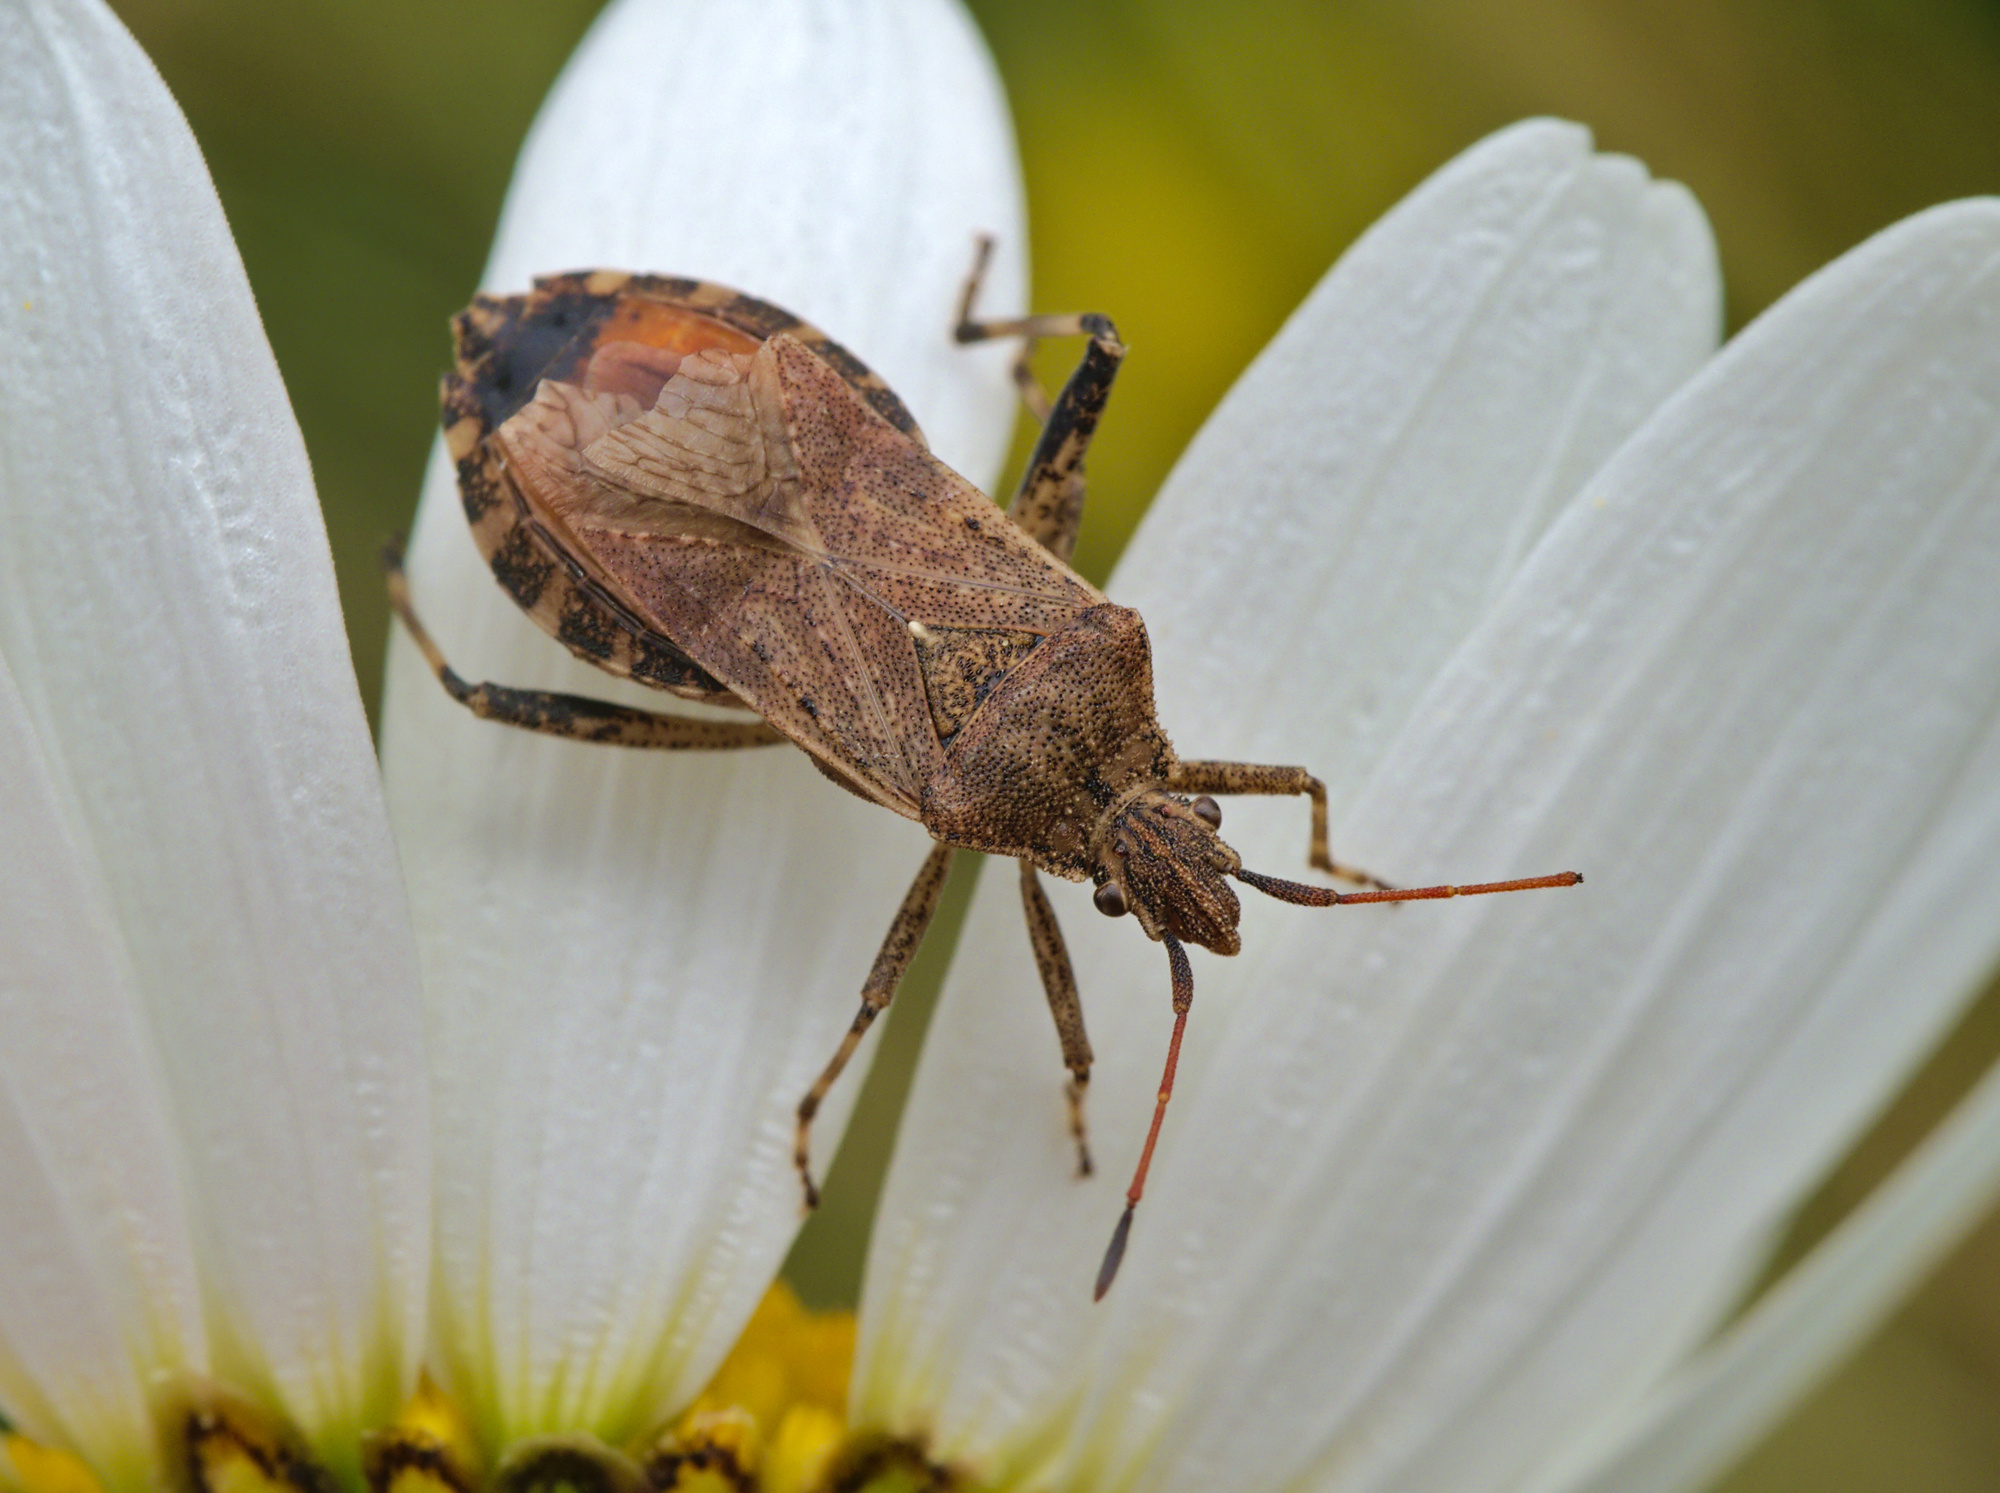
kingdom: Animalia
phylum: Arthropoda
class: Insecta
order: Hemiptera
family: Coreidae
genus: Ceraleptus
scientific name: Ceraleptus gracilicornis
